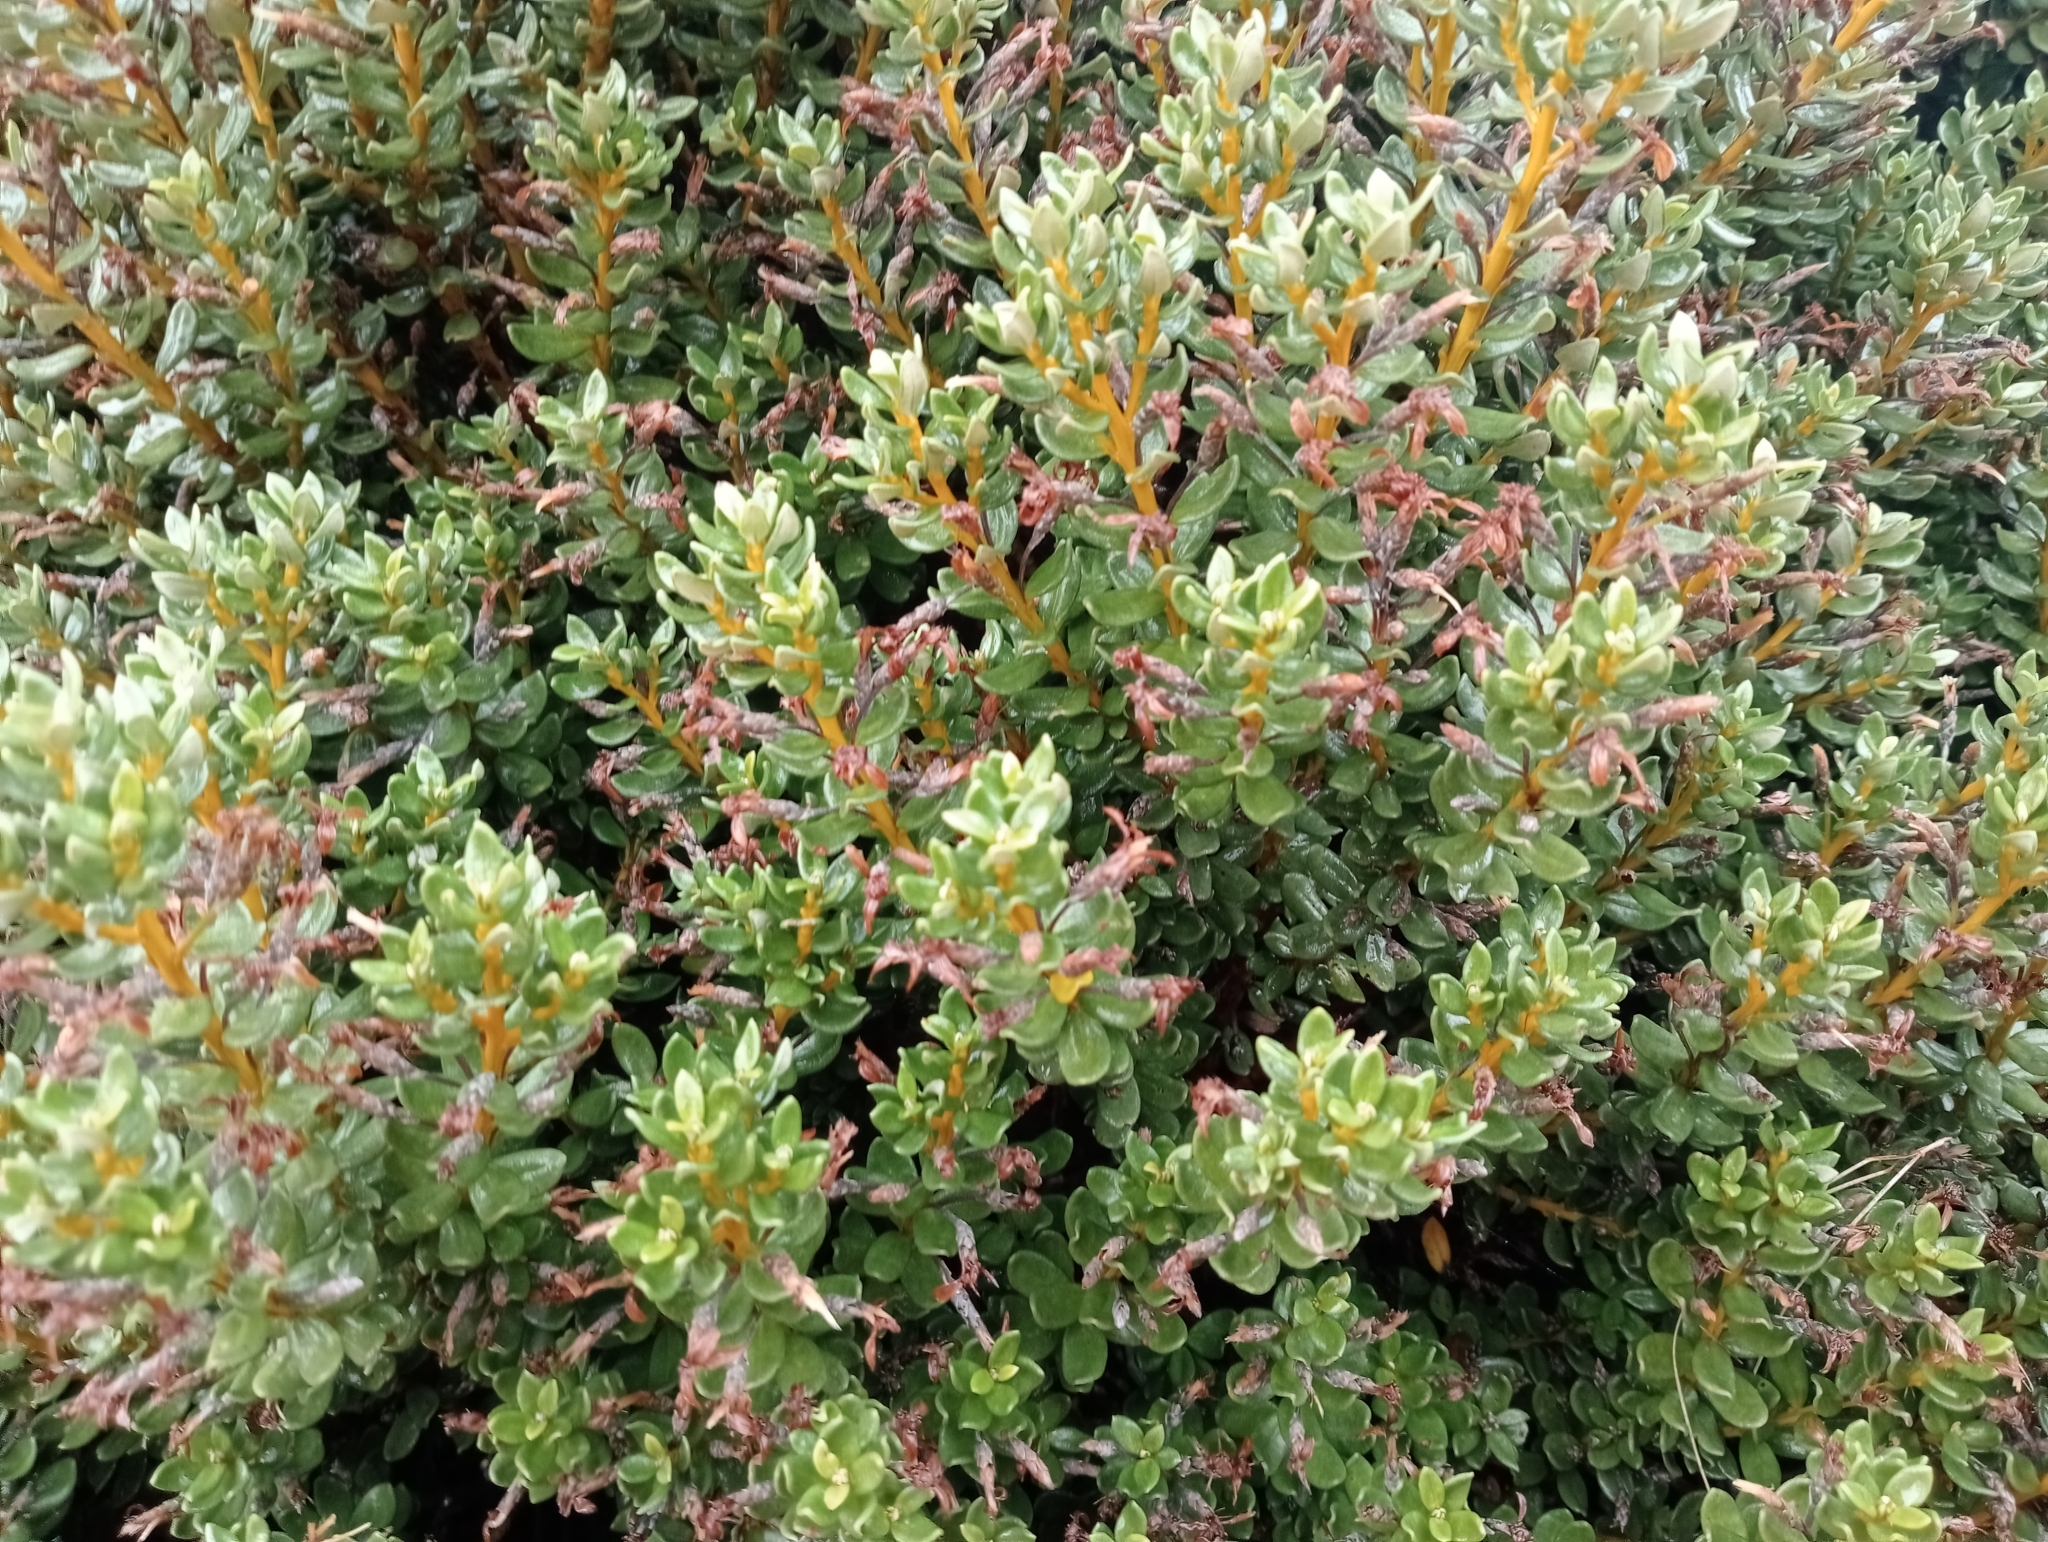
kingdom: Plantae
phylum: Tracheophyta
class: Magnoliopsida
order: Asterales
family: Asteraceae
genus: Olearia
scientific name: Olearia nummularifolia
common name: Sticky daisybush
